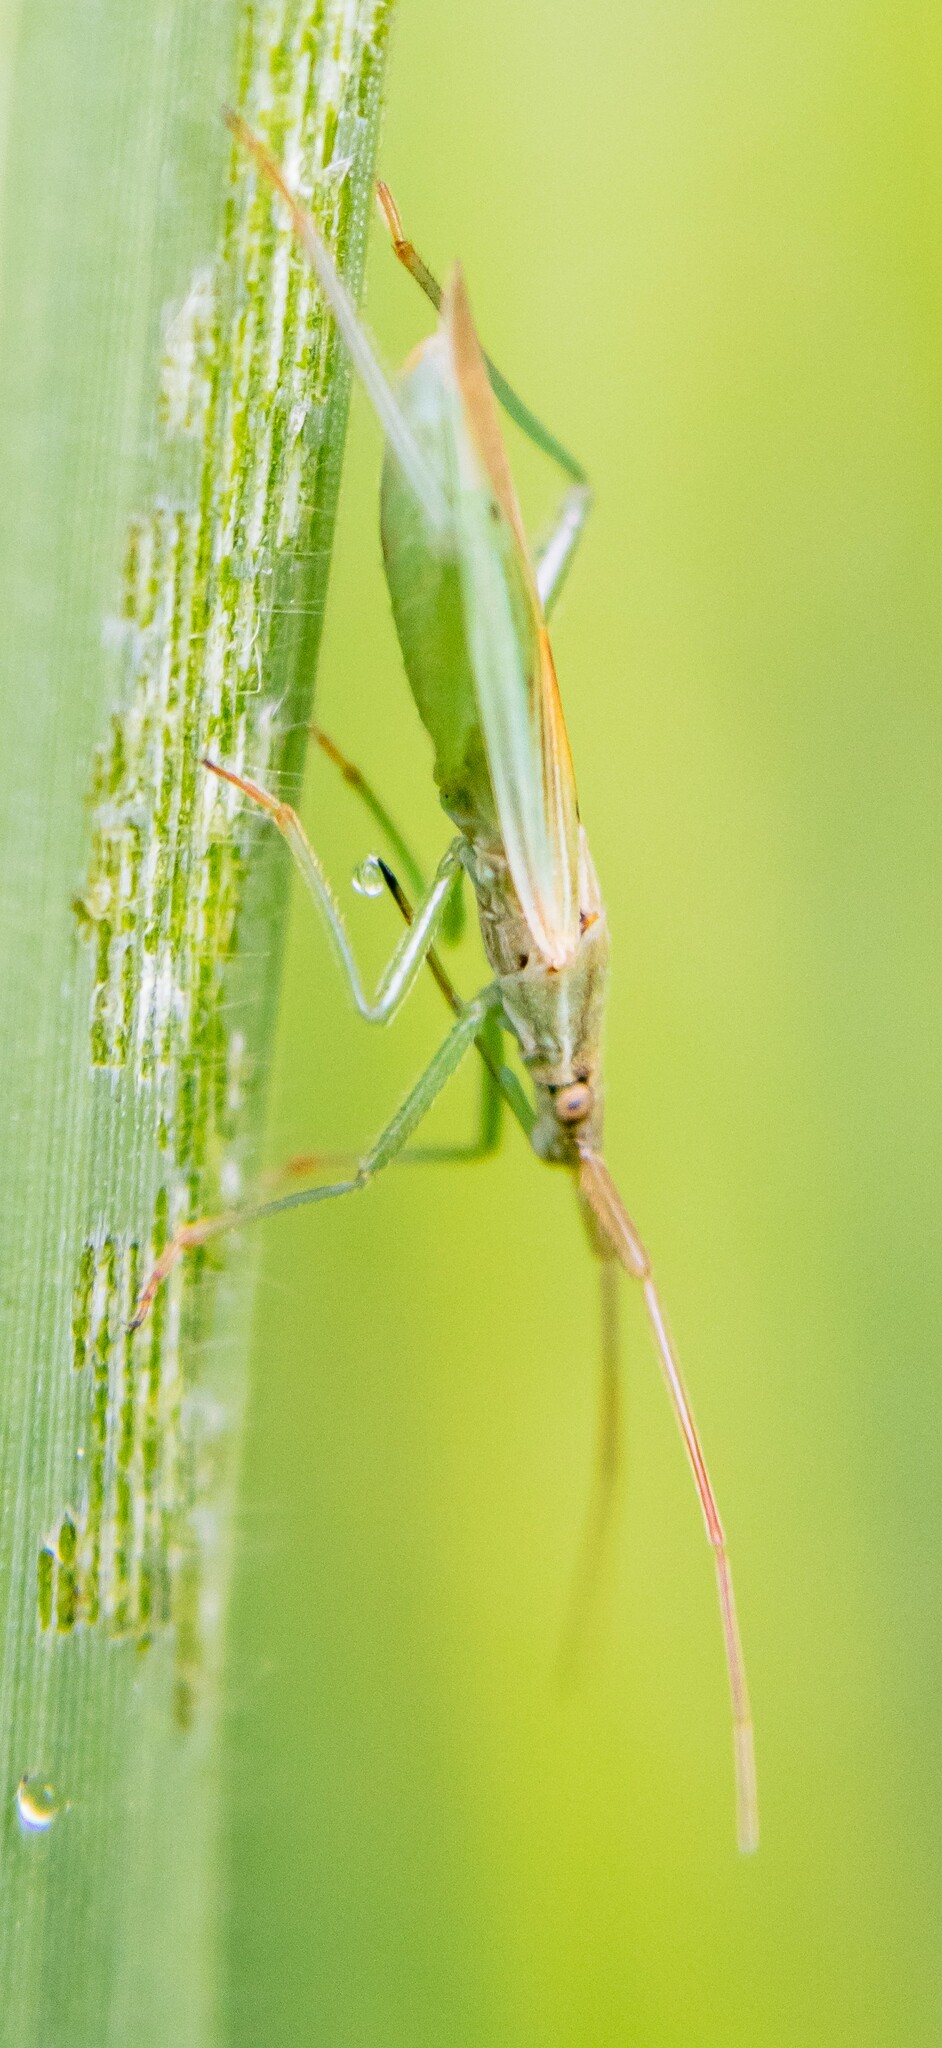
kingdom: Animalia
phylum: Arthropoda
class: Insecta
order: Hemiptera
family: Miridae
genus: Stenodema
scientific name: Stenodema laevigata
